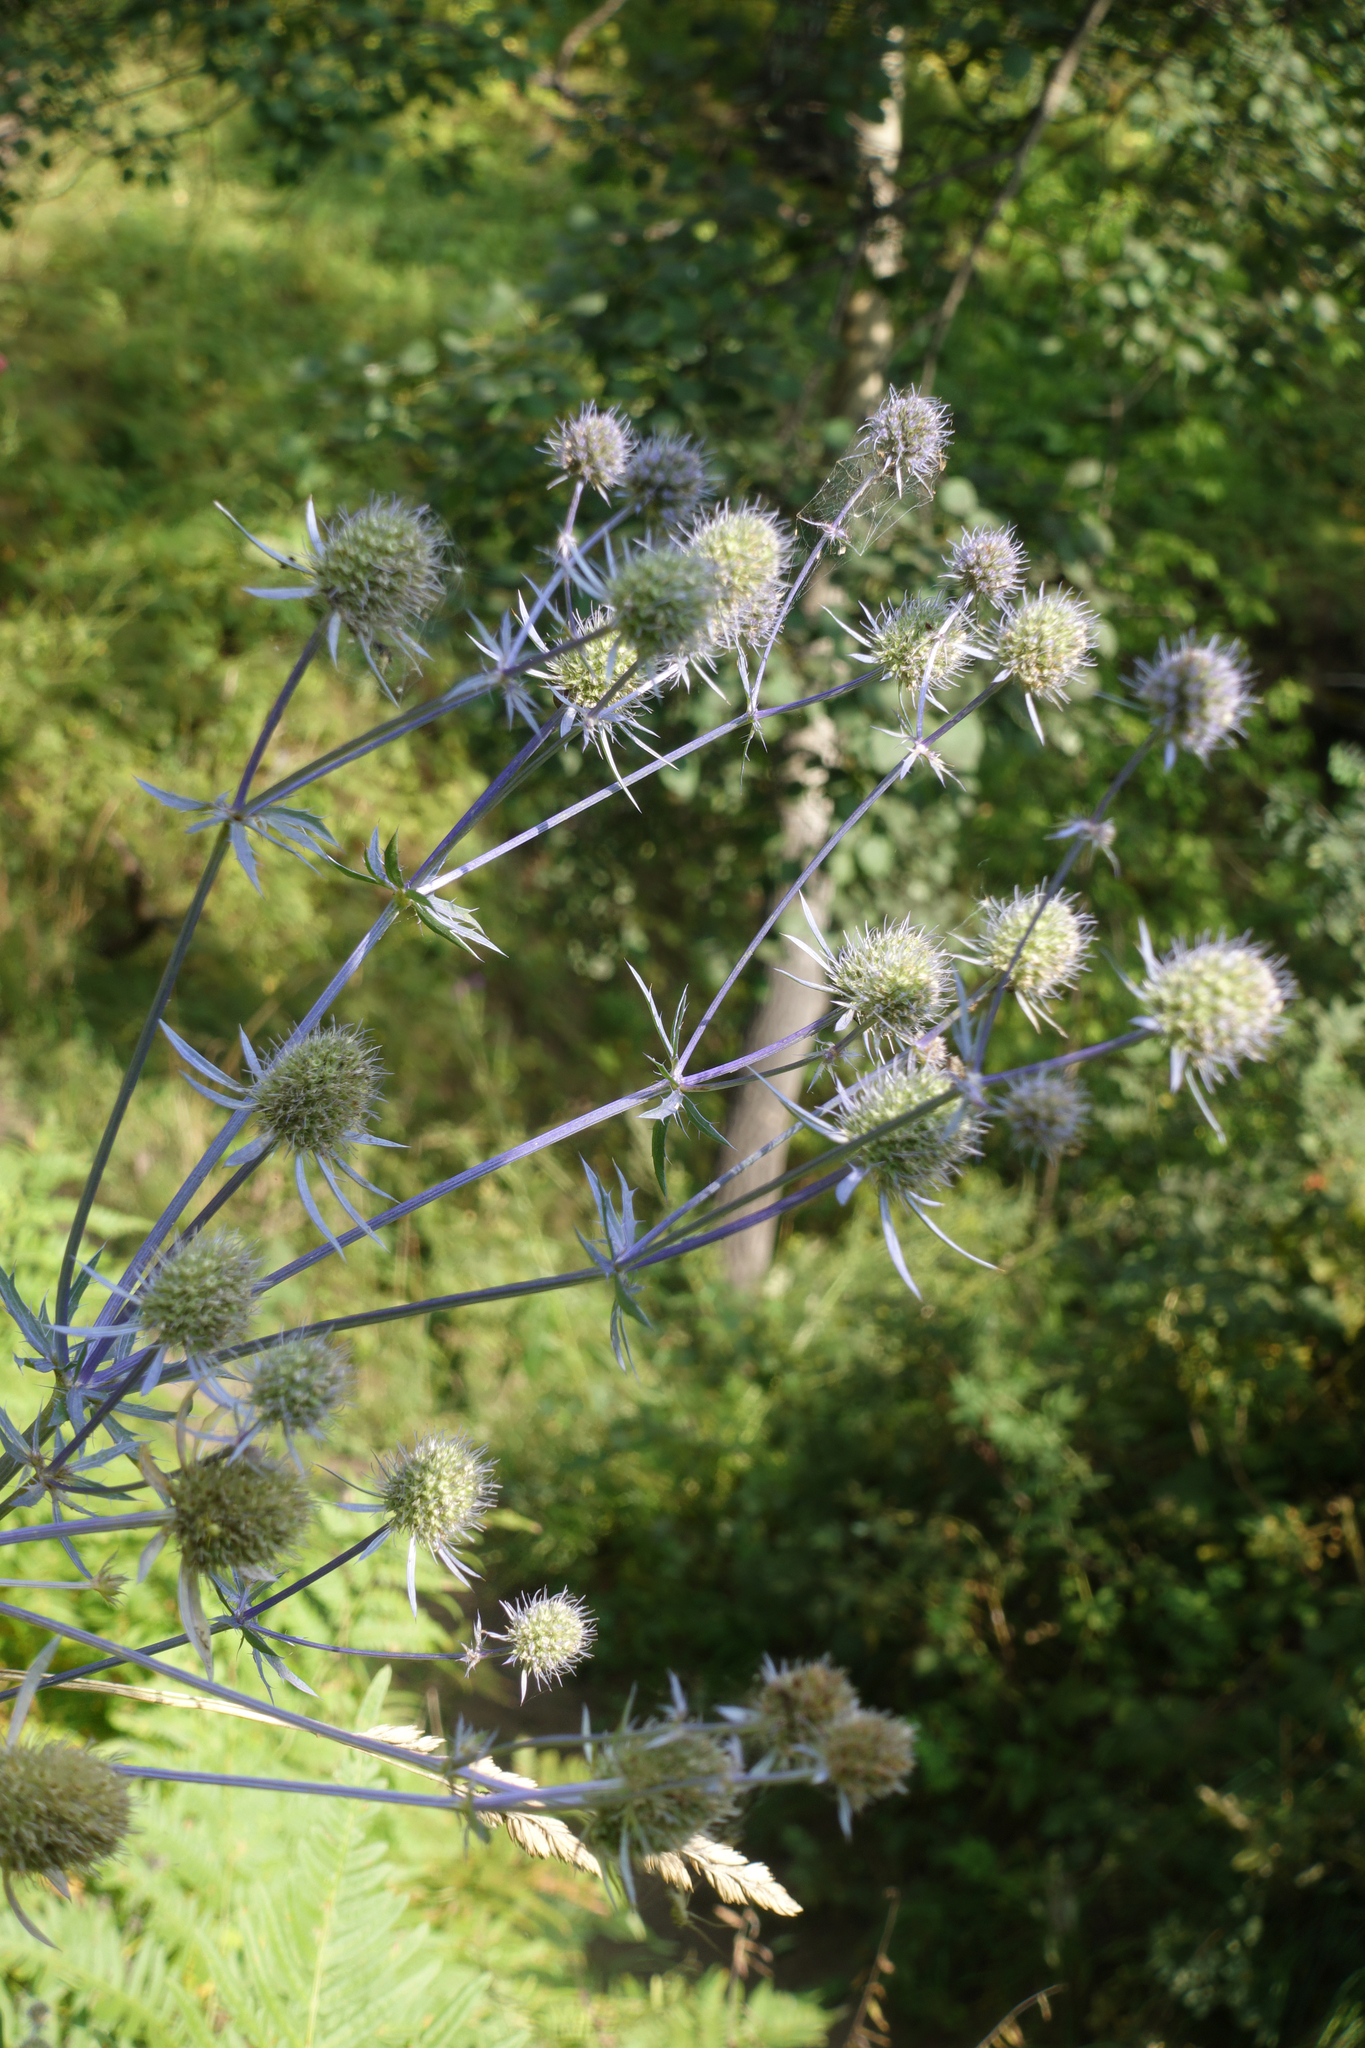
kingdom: Plantae
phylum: Tracheophyta
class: Magnoliopsida
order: Apiales
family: Apiaceae
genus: Eryngium
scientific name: Eryngium planum
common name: Blue eryngo
